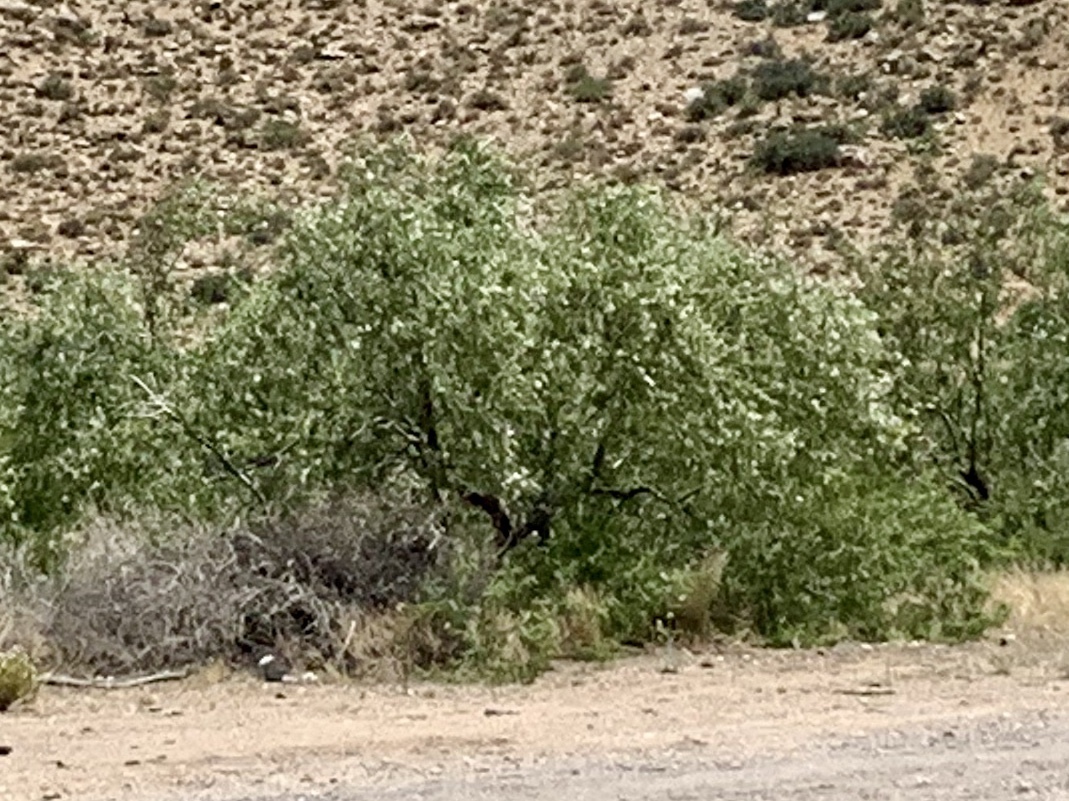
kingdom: Plantae
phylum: Tracheophyta
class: Magnoliopsida
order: Lamiales
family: Bignoniaceae
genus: Chilopsis
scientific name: Chilopsis linearis
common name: Desert-willow
